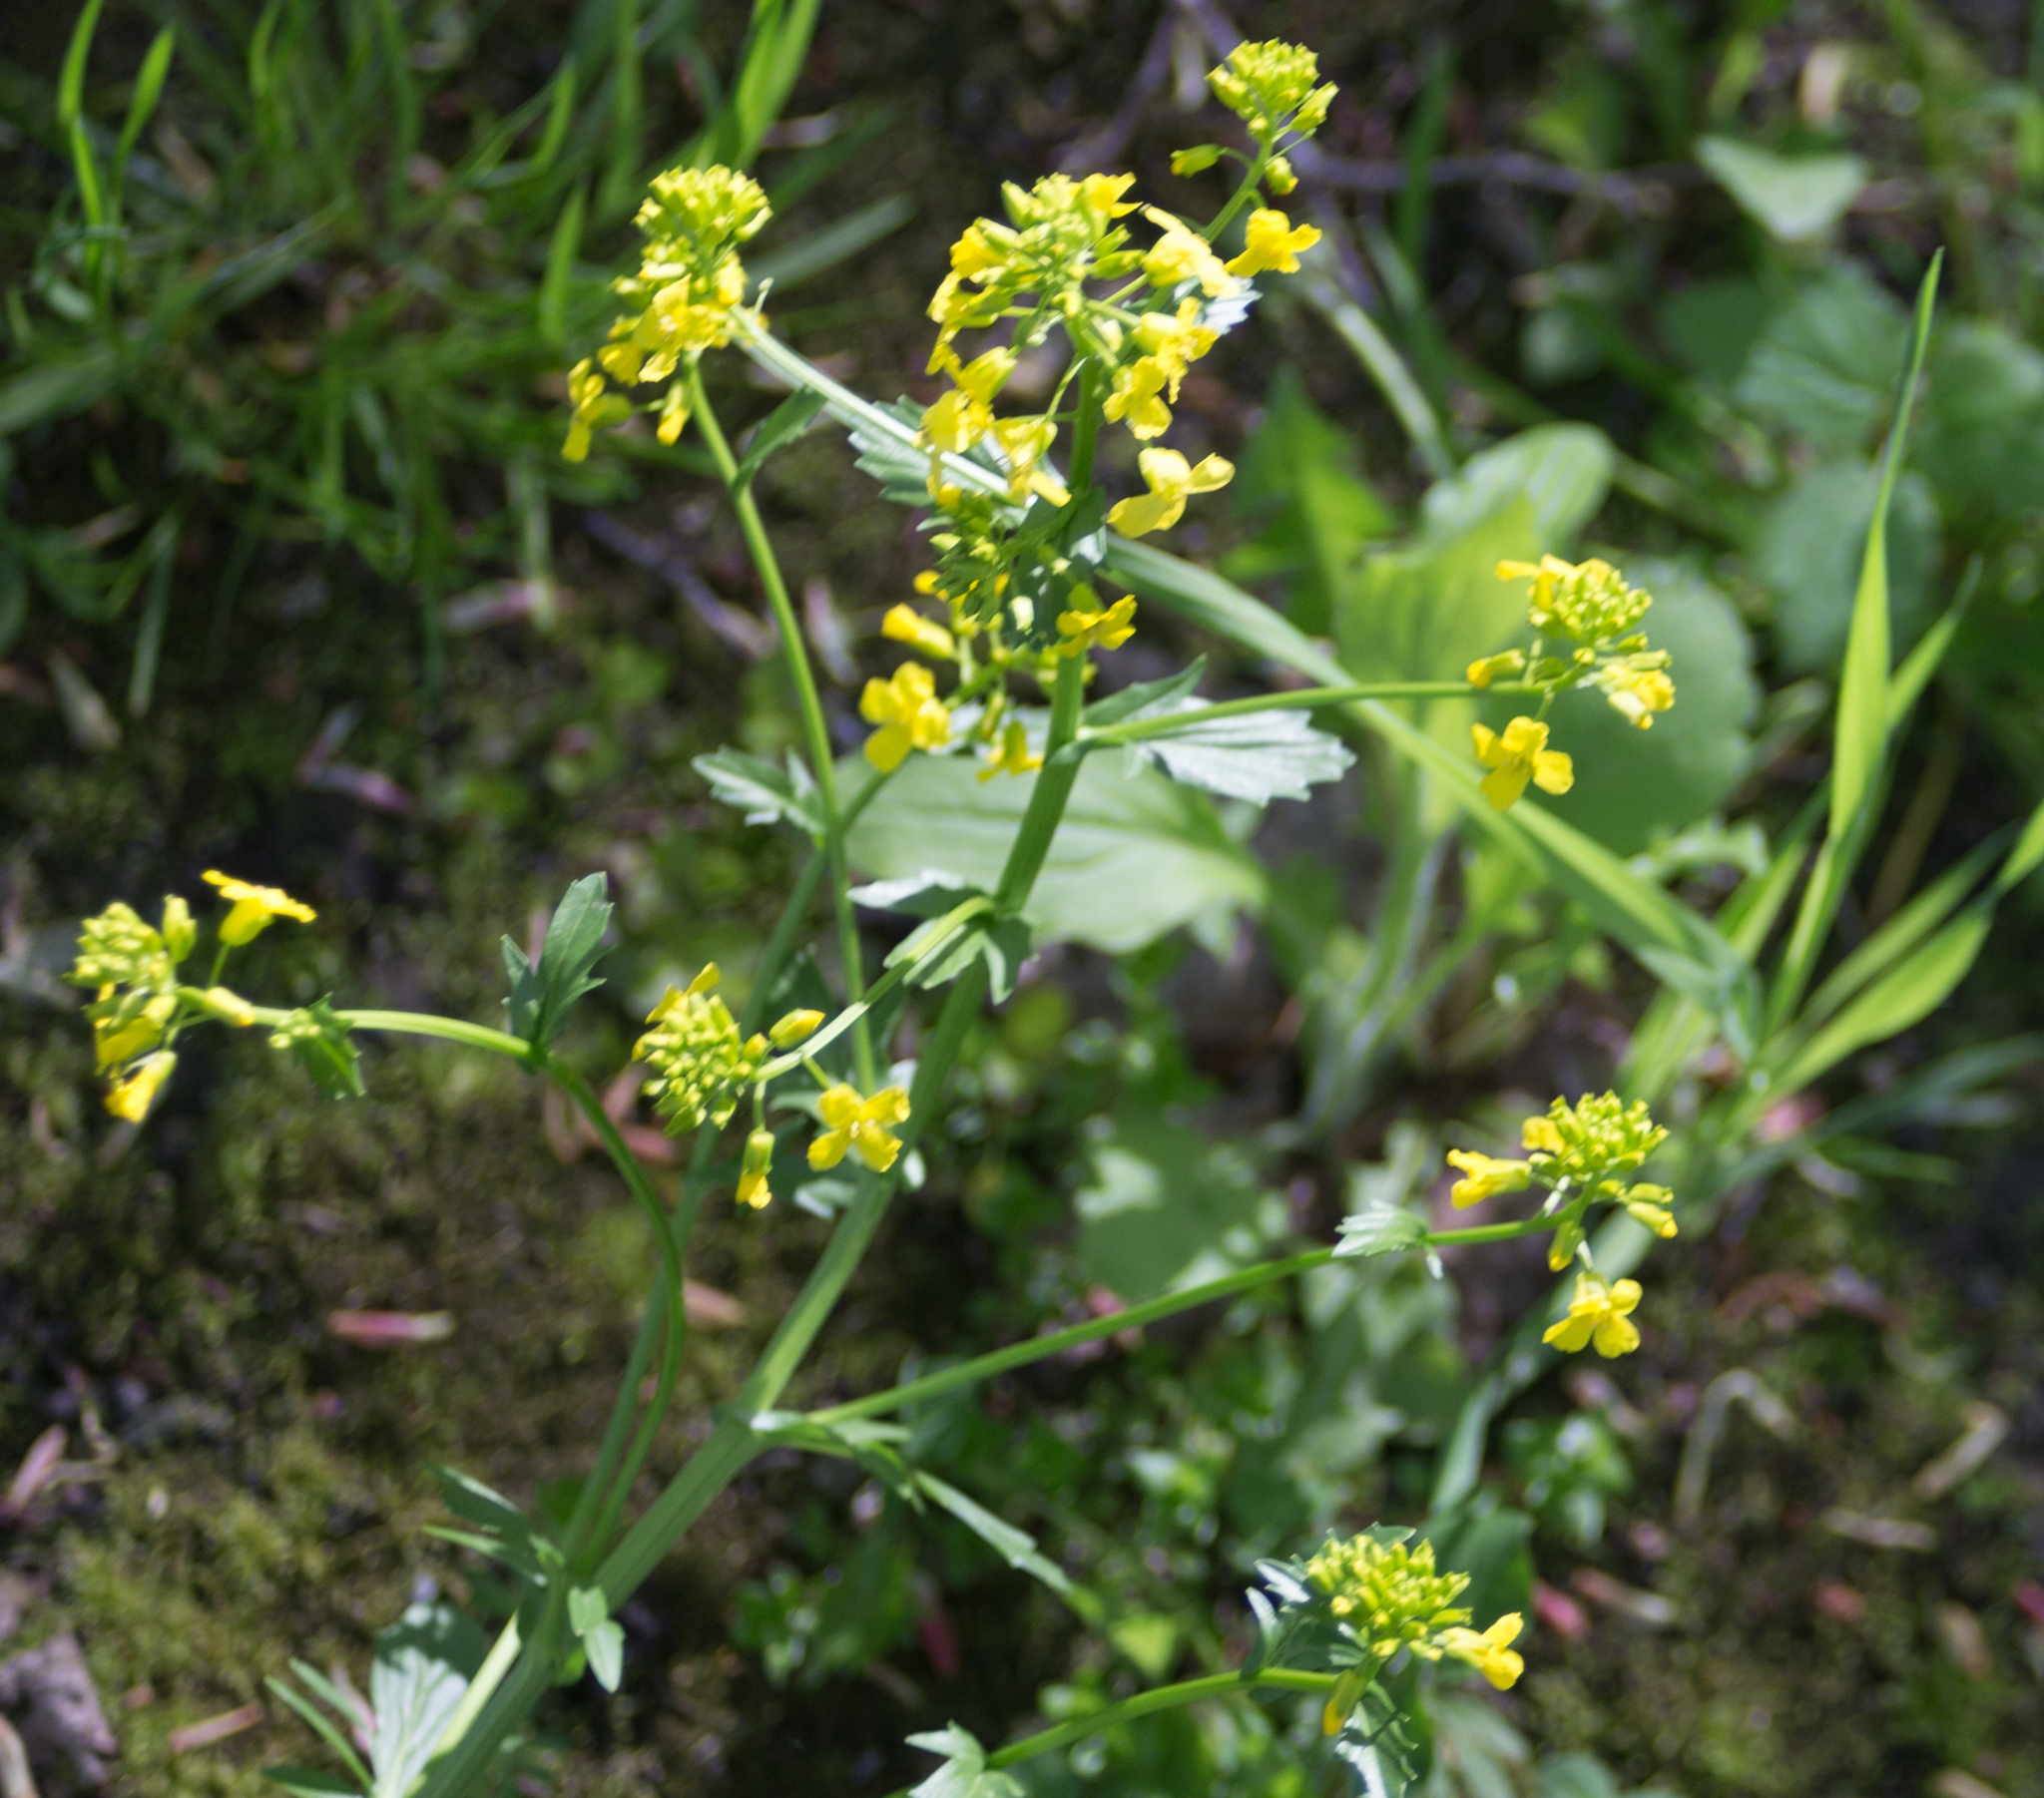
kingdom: Plantae
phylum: Tracheophyta
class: Magnoliopsida
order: Brassicales
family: Brassicaceae
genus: Barbarea
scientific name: Barbarea vulgaris
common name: Cressy-greens
